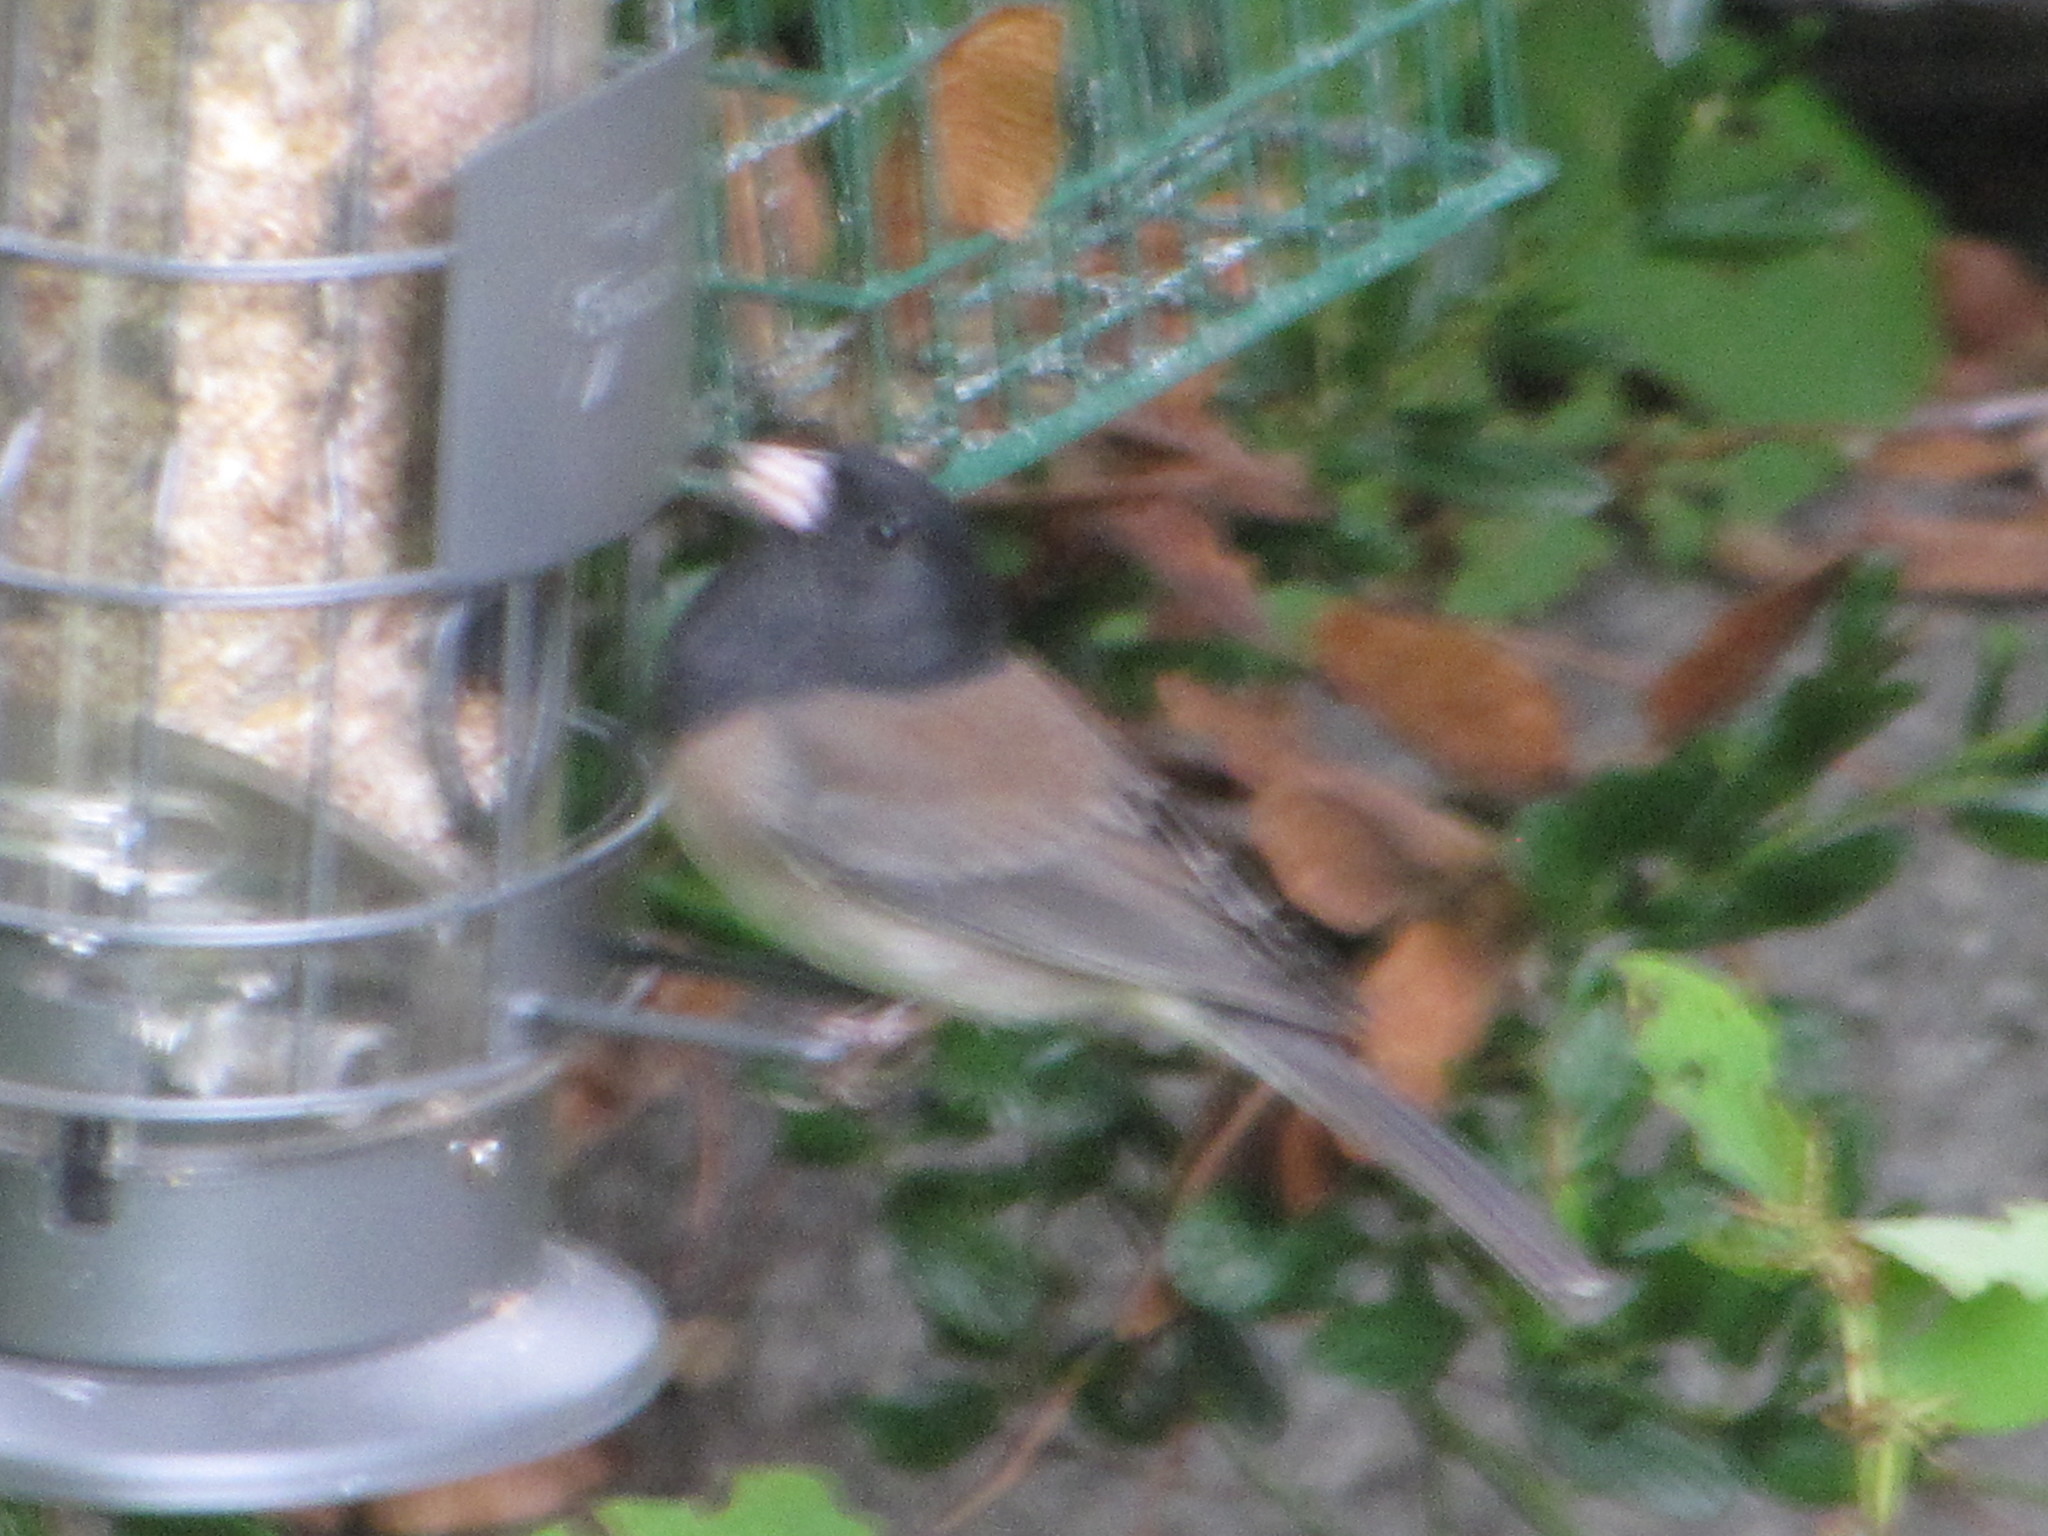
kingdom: Animalia
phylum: Chordata
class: Aves
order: Passeriformes
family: Passerellidae
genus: Junco
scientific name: Junco hyemalis
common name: Dark-eyed junco
